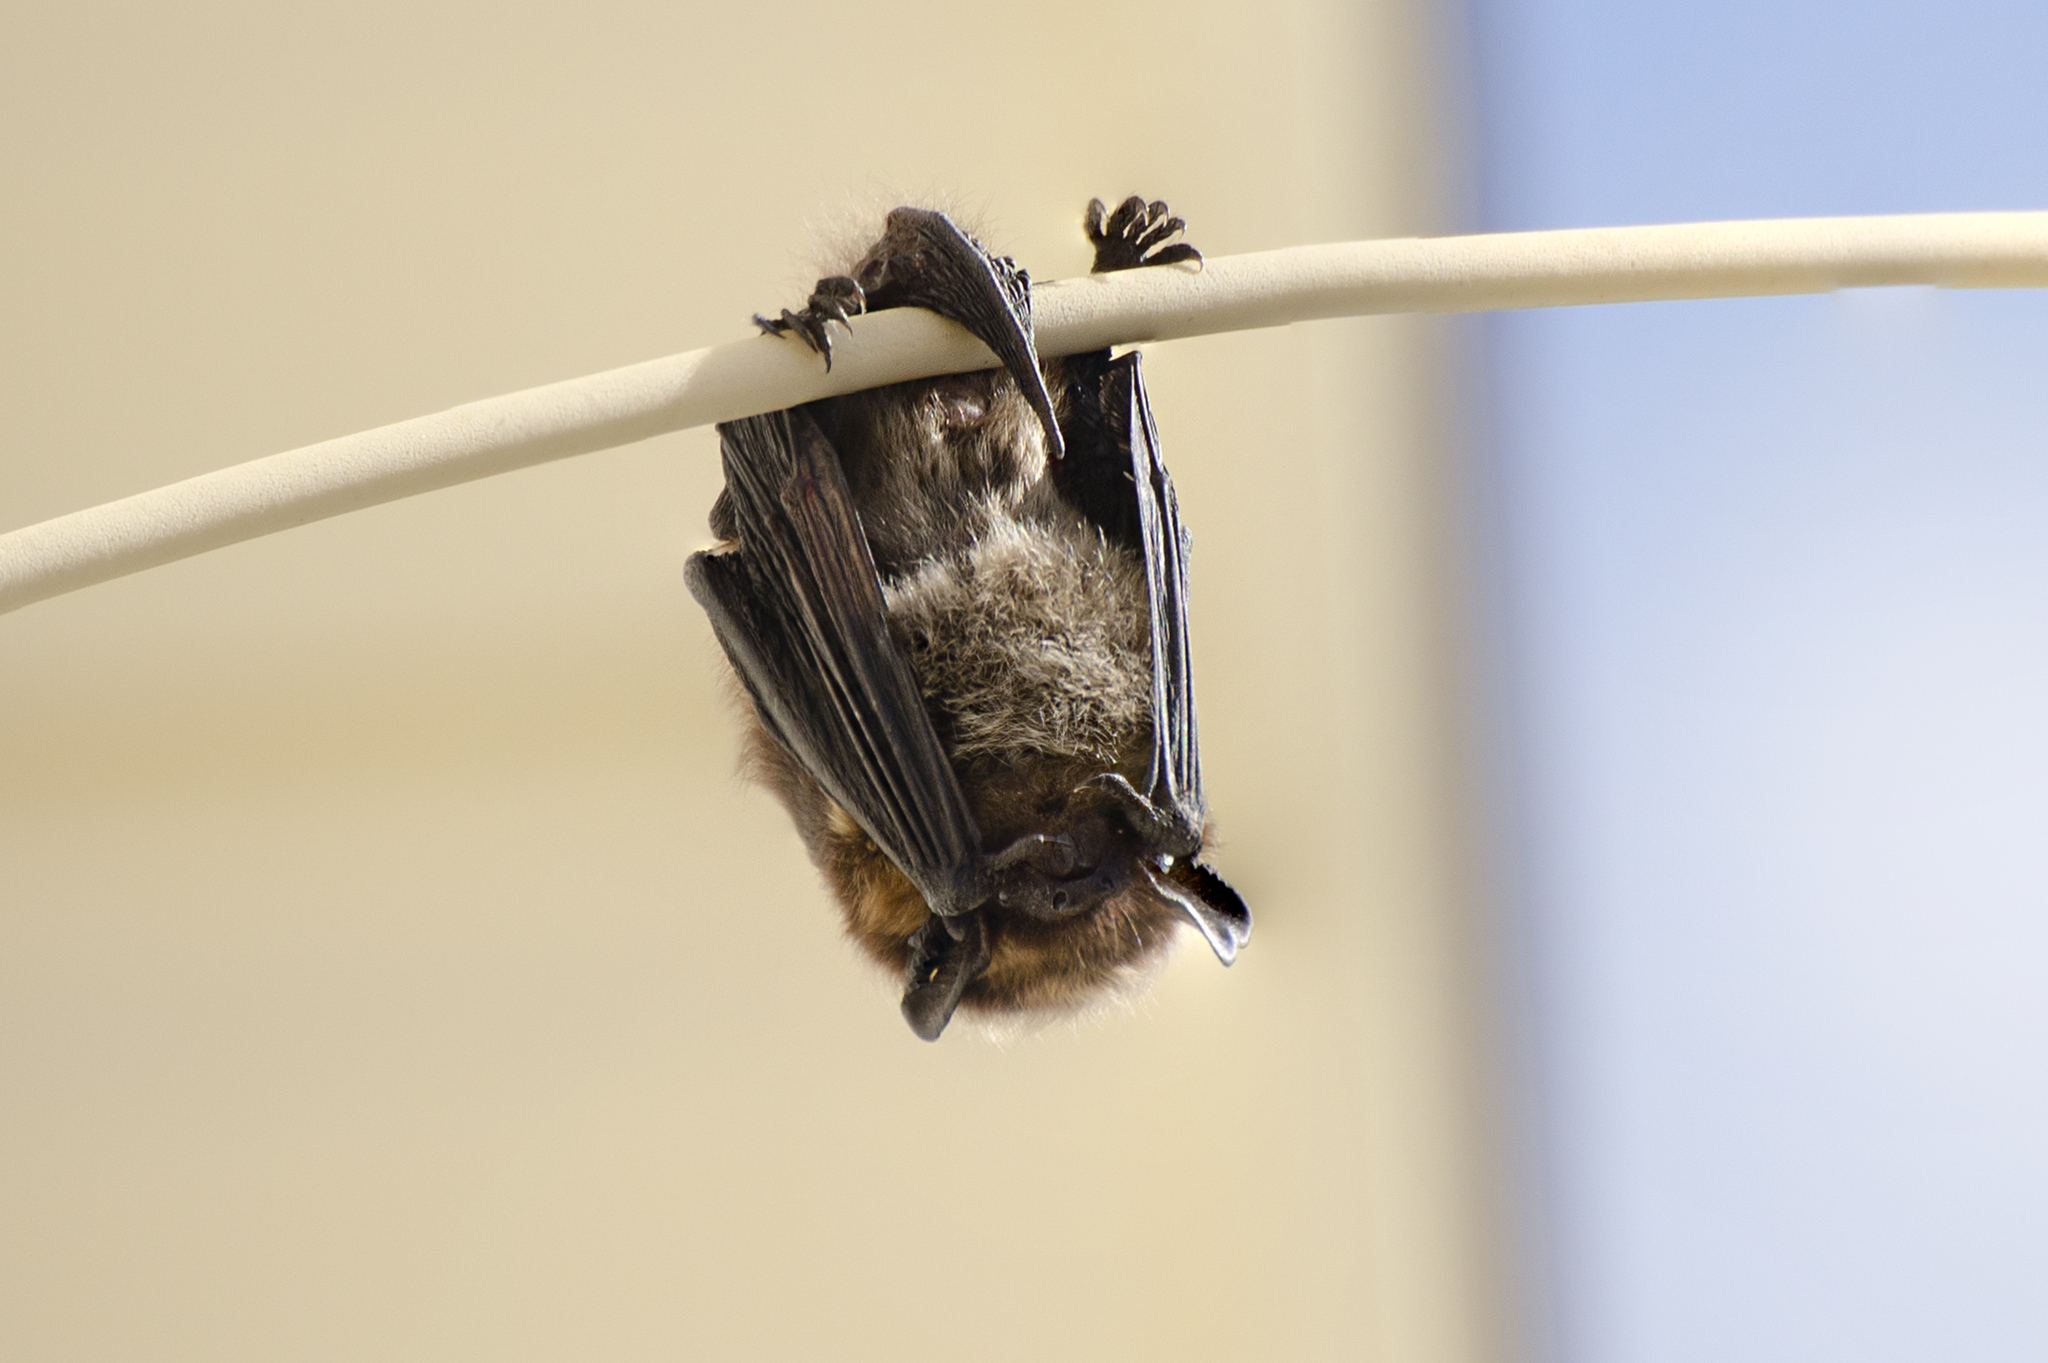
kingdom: Animalia
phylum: Chordata
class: Mammalia
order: Chiroptera
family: Vespertilionidae
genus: Eptesicus
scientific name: Eptesicus nilssonii
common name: Northern bat
